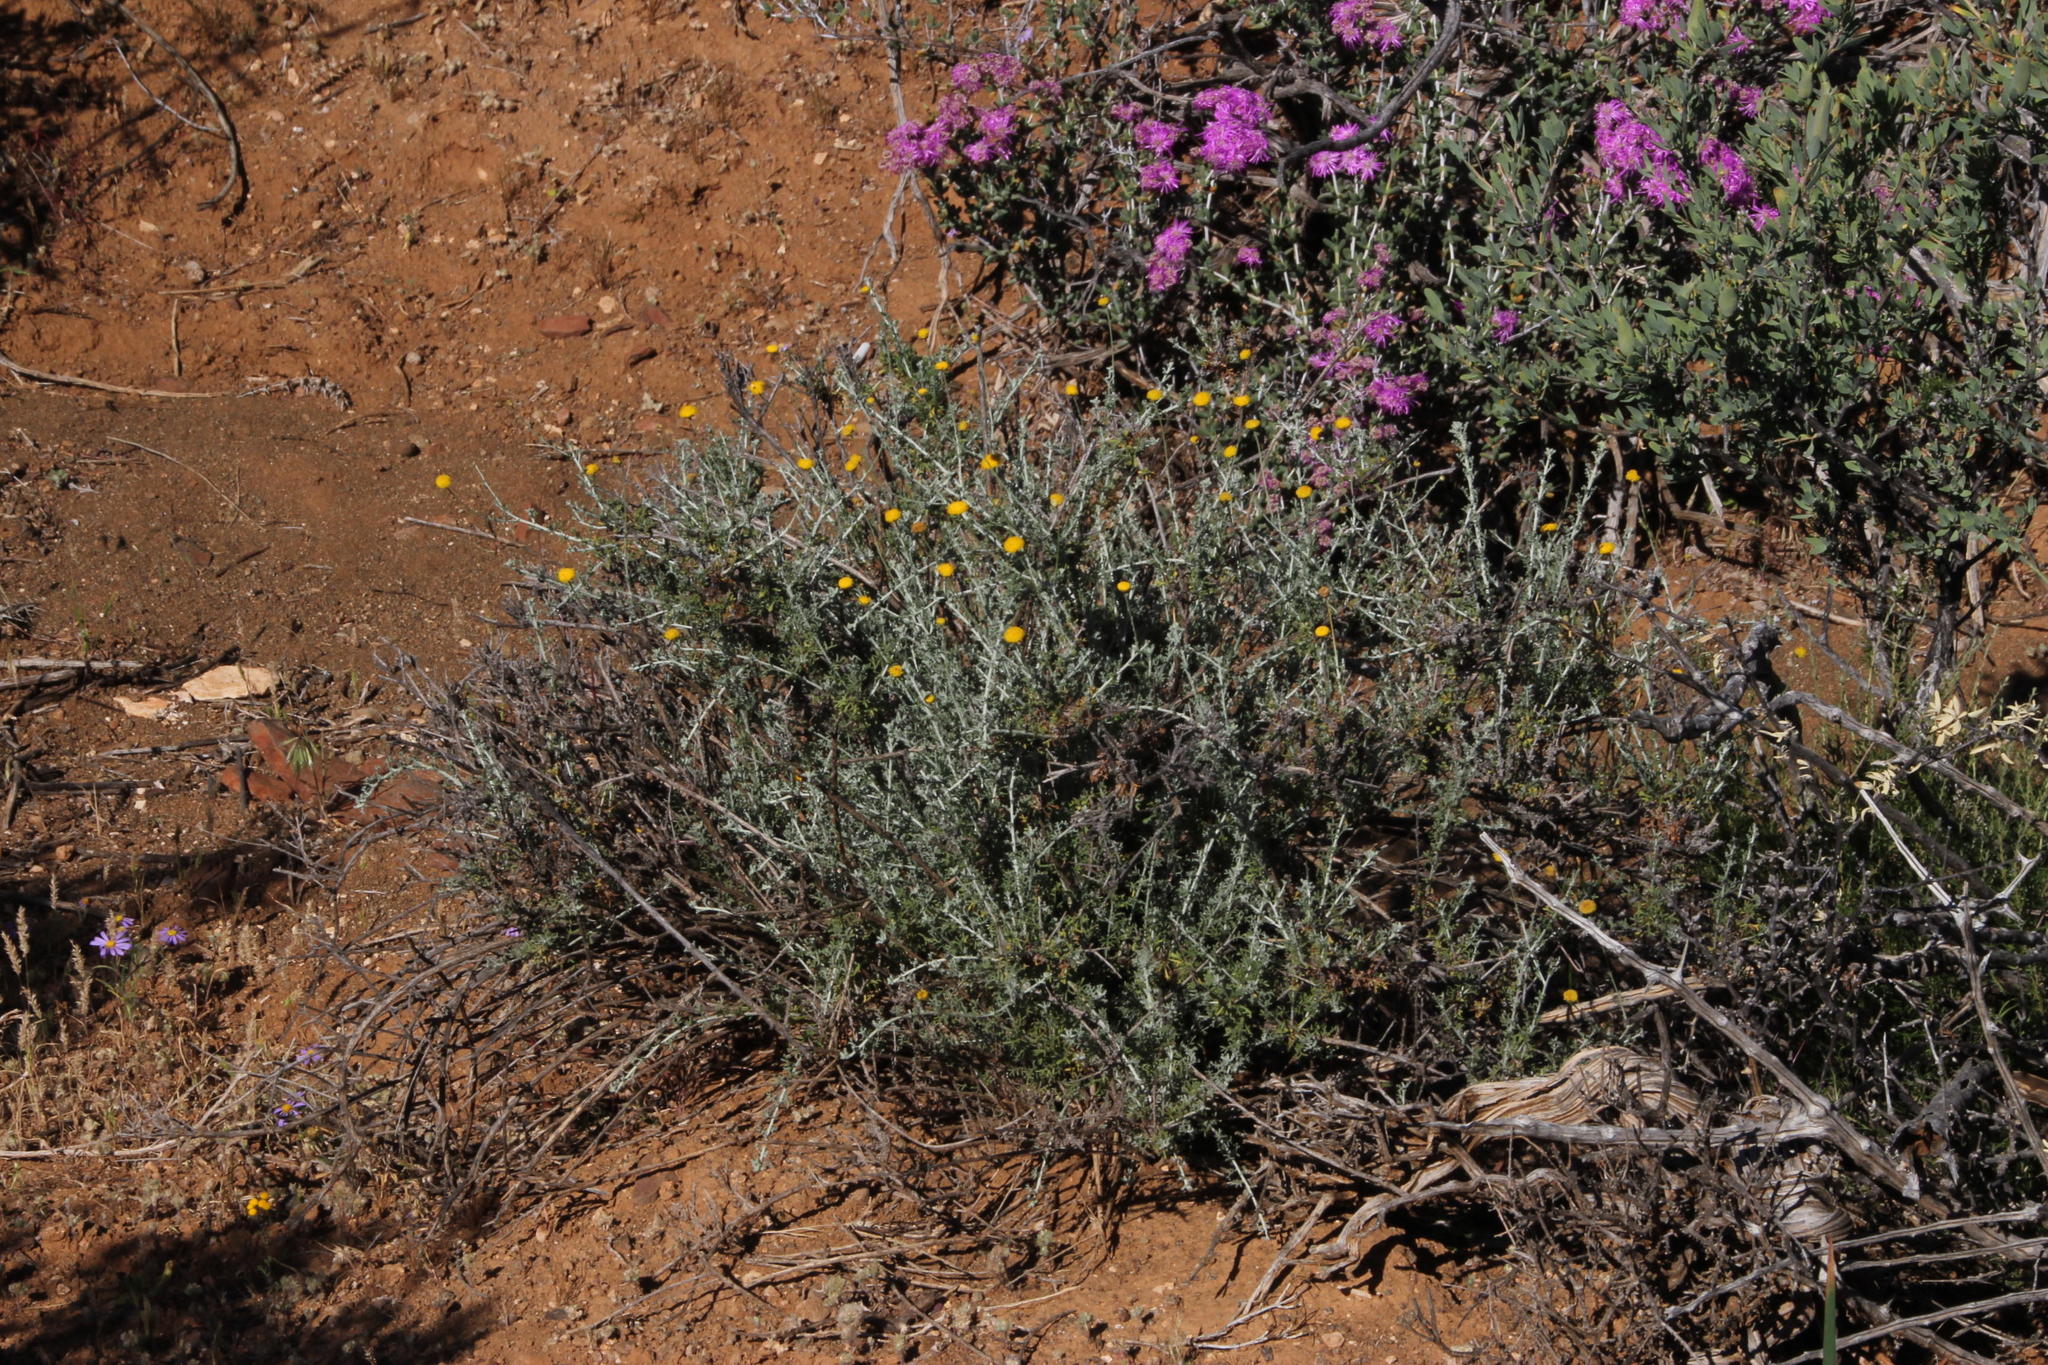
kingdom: Plantae
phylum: Tracheophyta
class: Magnoliopsida
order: Asterales
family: Asteraceae
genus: Pentzia
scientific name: Pentzia globosa
